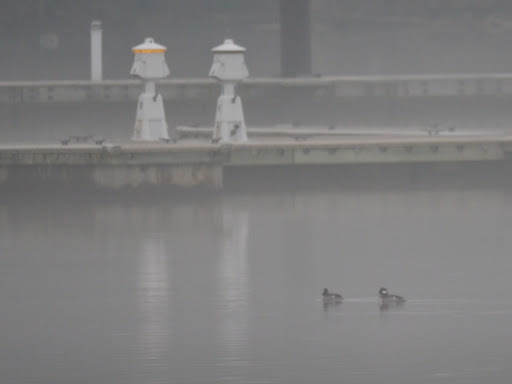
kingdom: Animalia
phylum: Chordata
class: Aves
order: Anseriformes
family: Anatidae
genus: Bucephala
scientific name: Bucephala albeola
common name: Bufflehead
